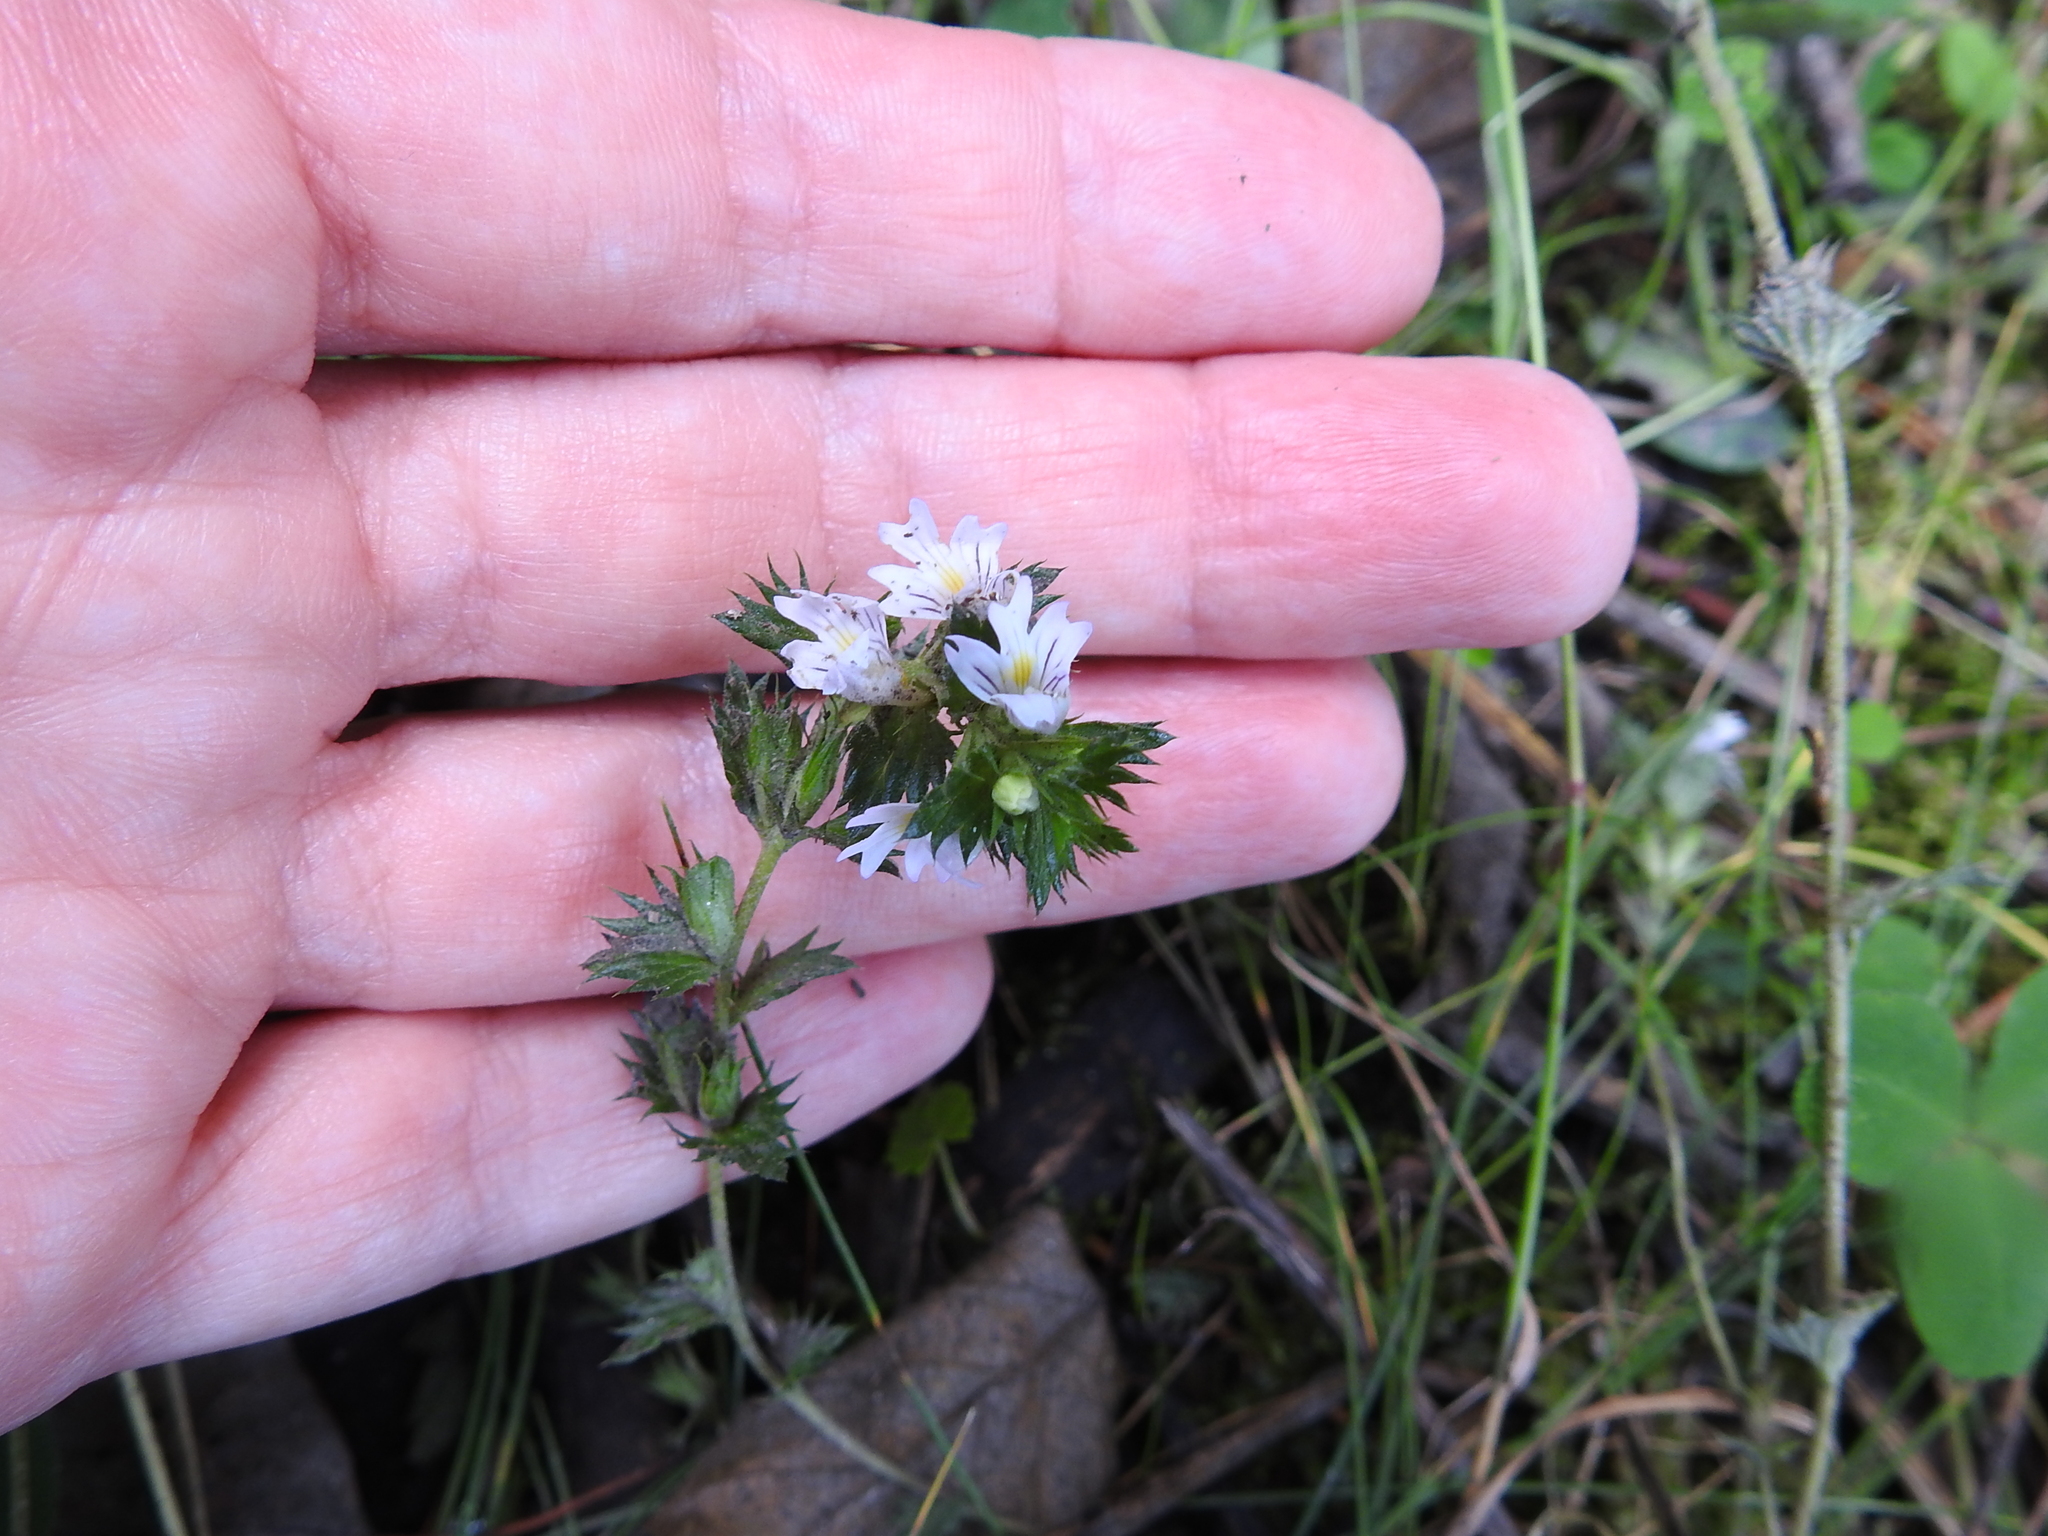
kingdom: Plantae
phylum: Tracheophyta
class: Magnoliopsida
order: Lamiales
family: Orobanchaceae
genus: Euphrasia
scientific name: Euphrasia stricta
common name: Drug eyebright
